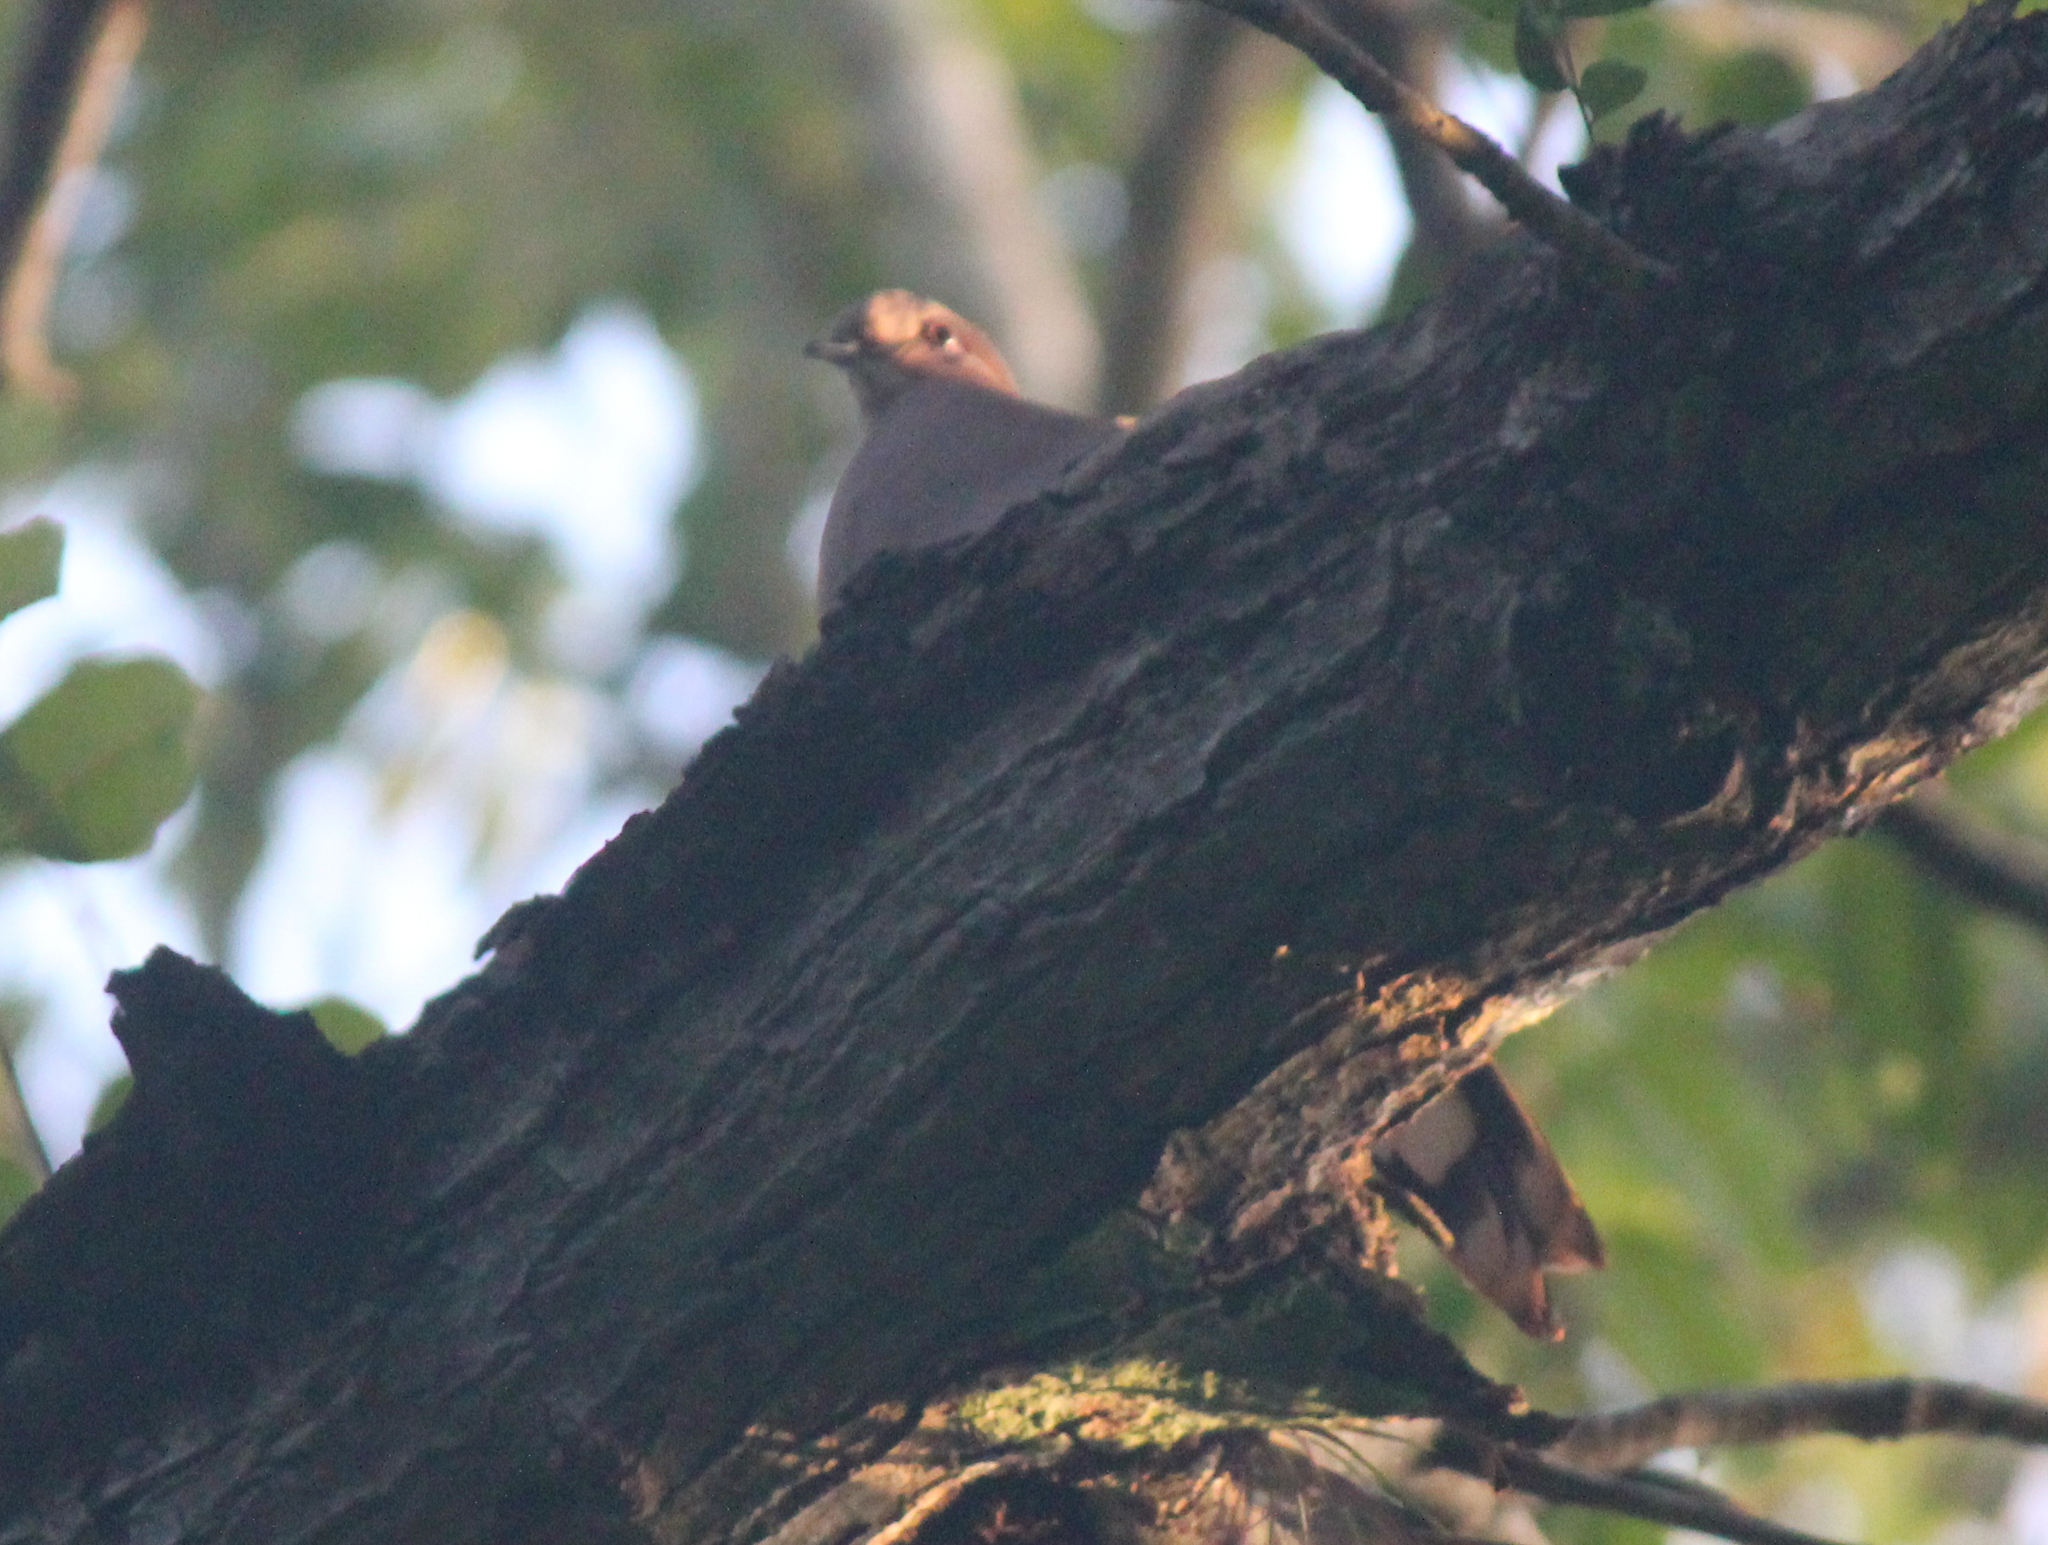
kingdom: Animalia
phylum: Chordata
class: Aves
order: Columbiformes
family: Columbidae
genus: Zenaida
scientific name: Zenaida asiatica
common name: White-winged dove
